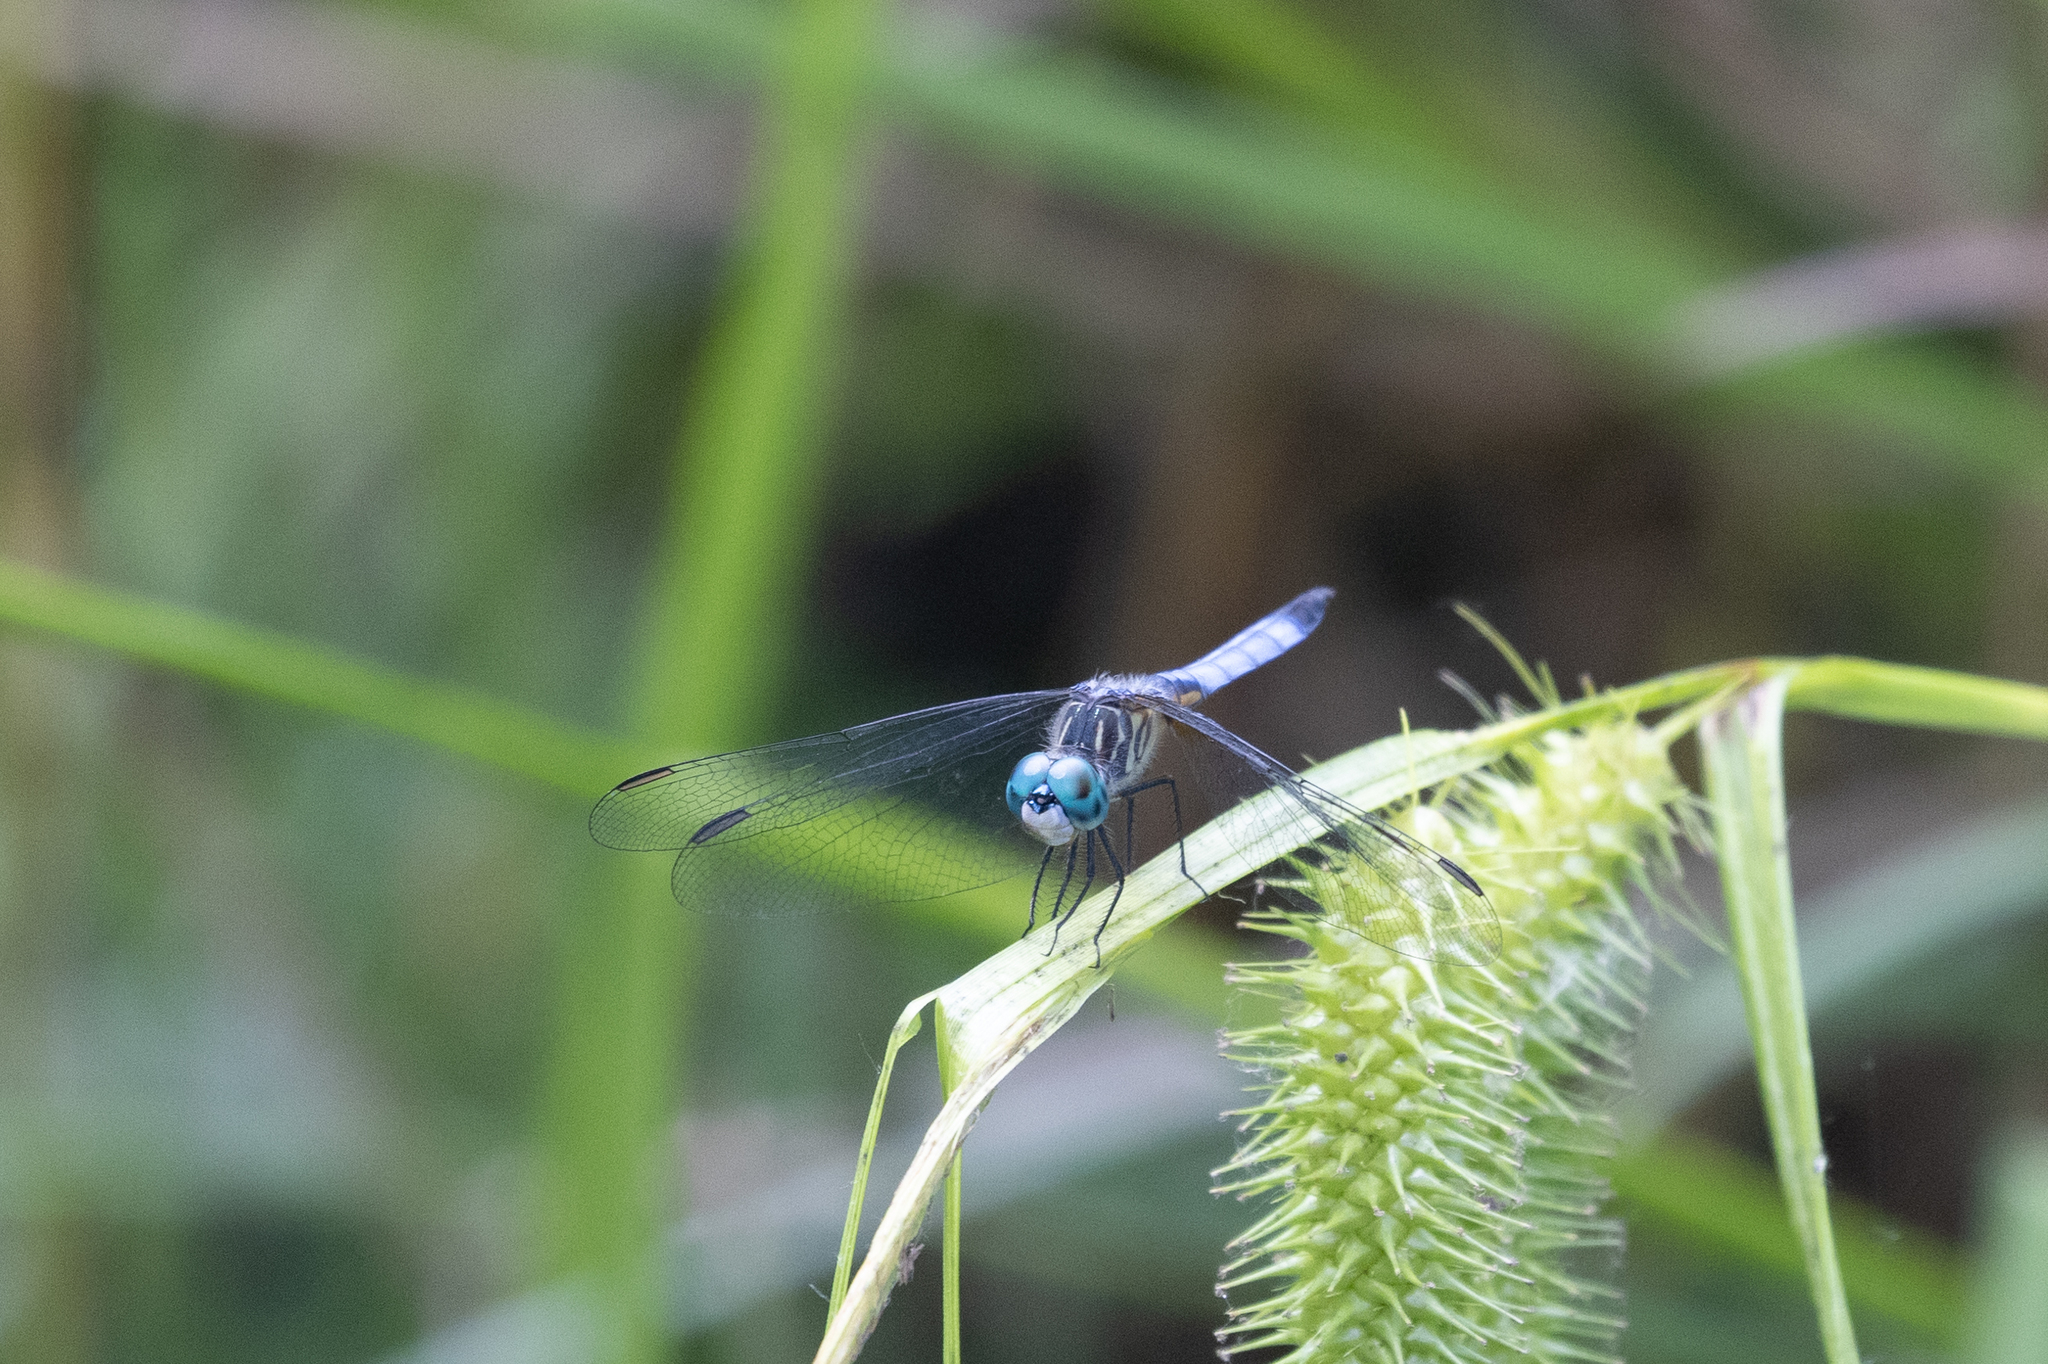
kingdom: Animalia
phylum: Arthropoda
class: Insecta
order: Odonata
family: Libellulidae
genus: Pachydiplax
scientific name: Pachydiplax longipennis
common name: Blue dasher
